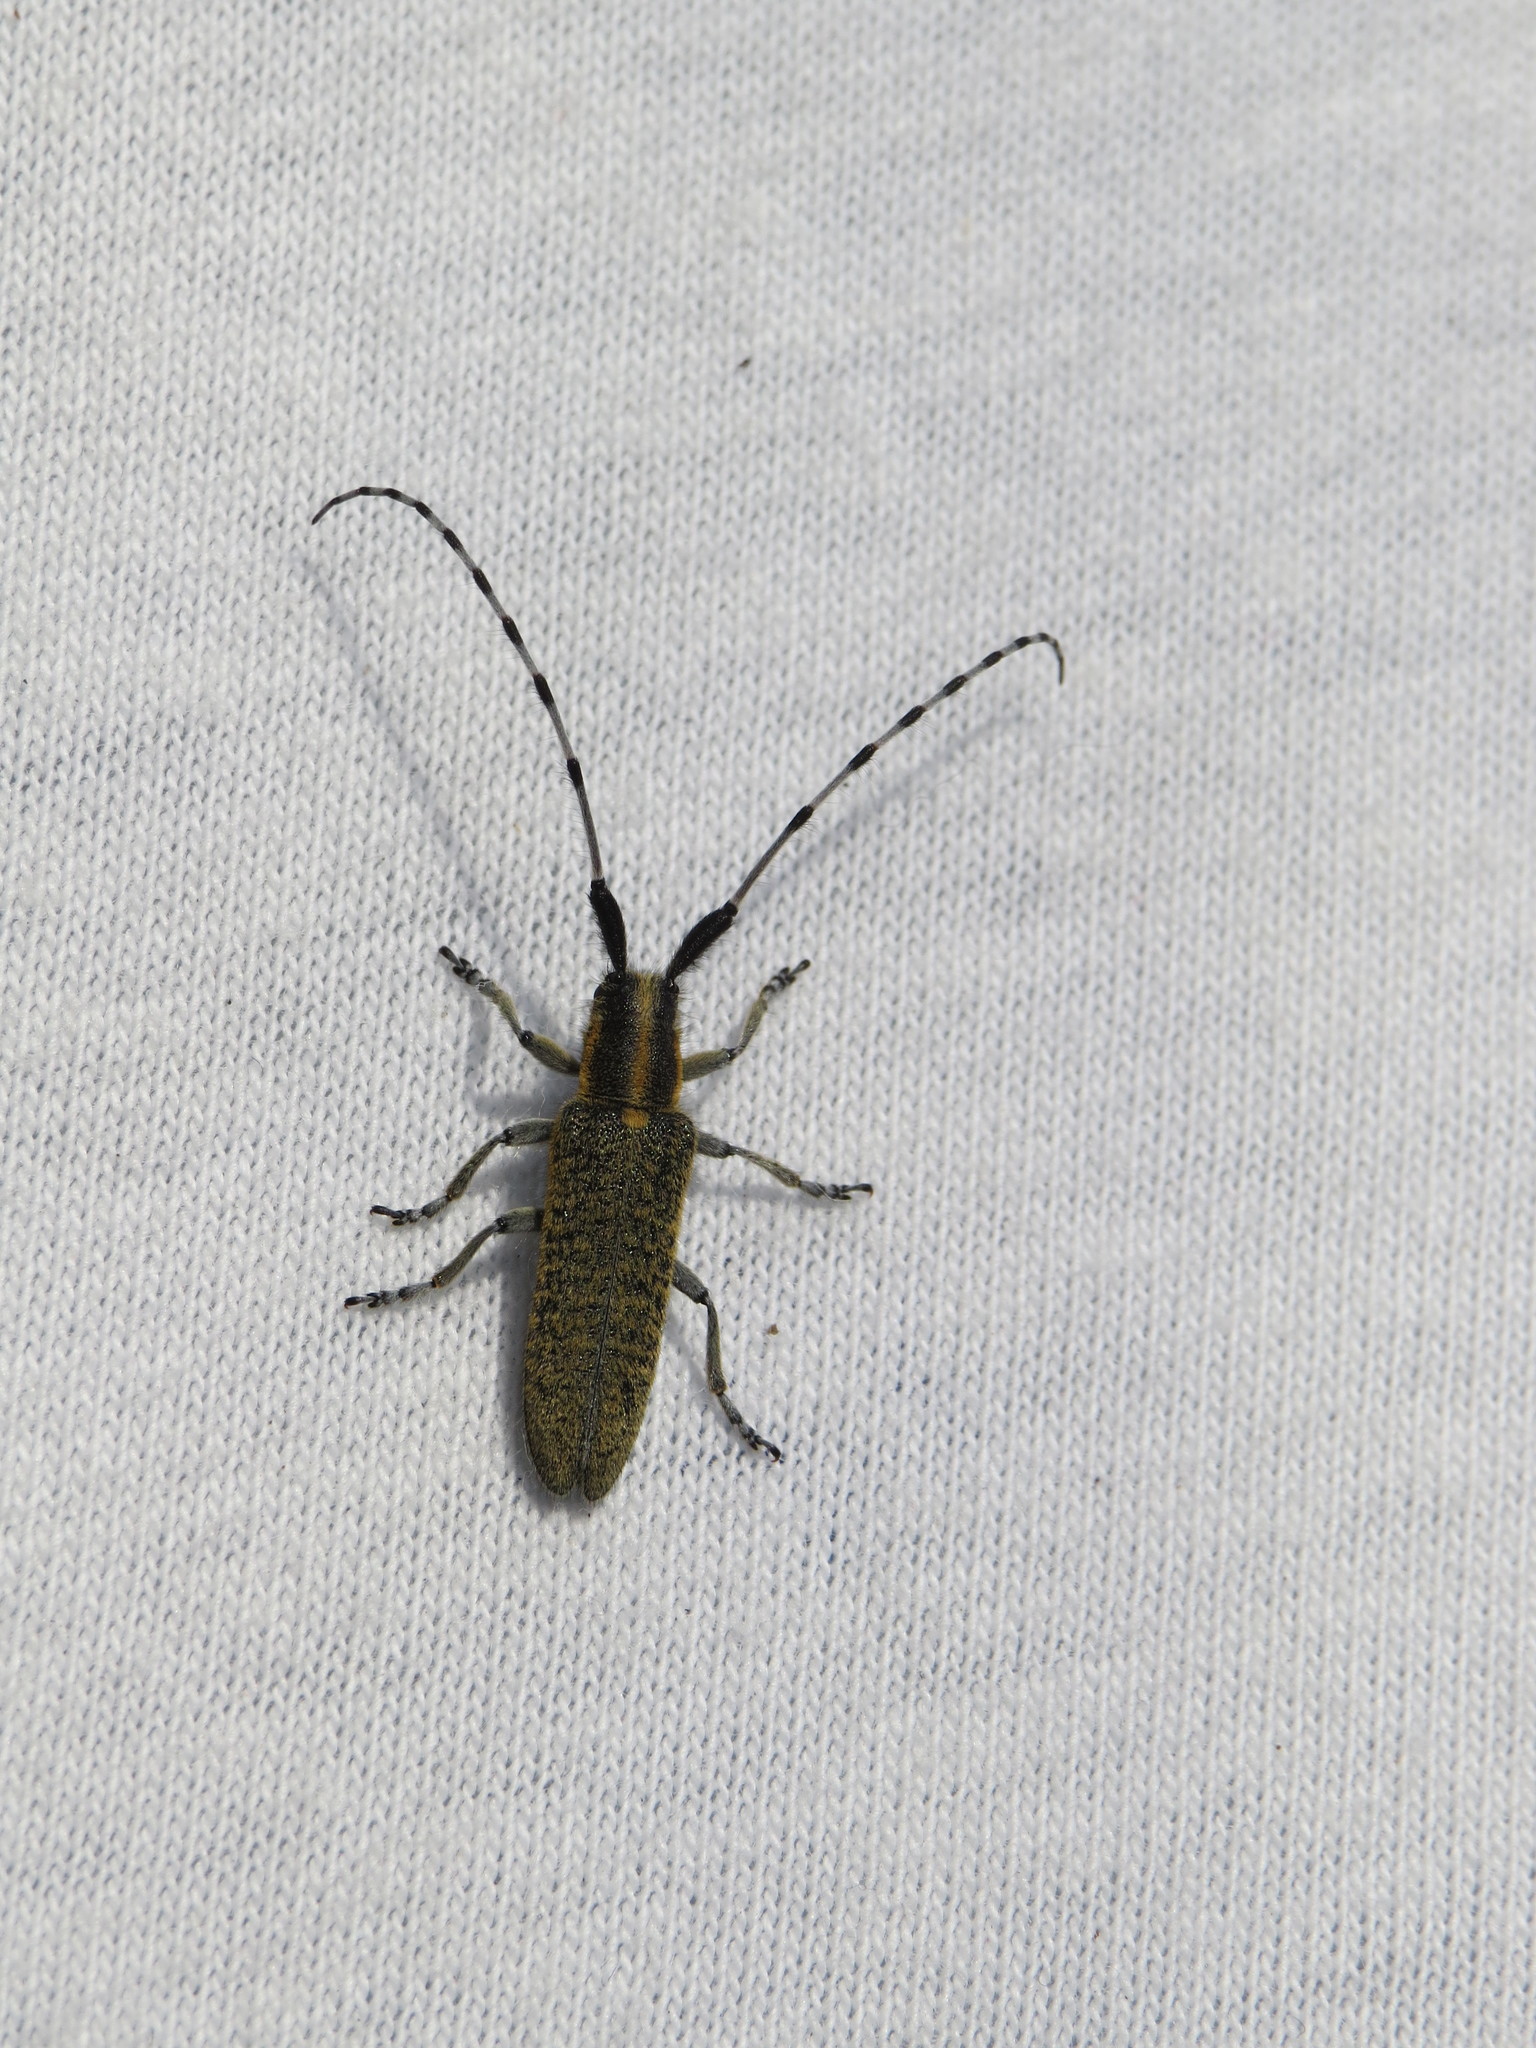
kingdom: Animalia
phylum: Arthropoda
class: Insecta
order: Coleoptera
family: Cerambycidae
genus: Agapanthia
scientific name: Agapanthia villosoviridescens
